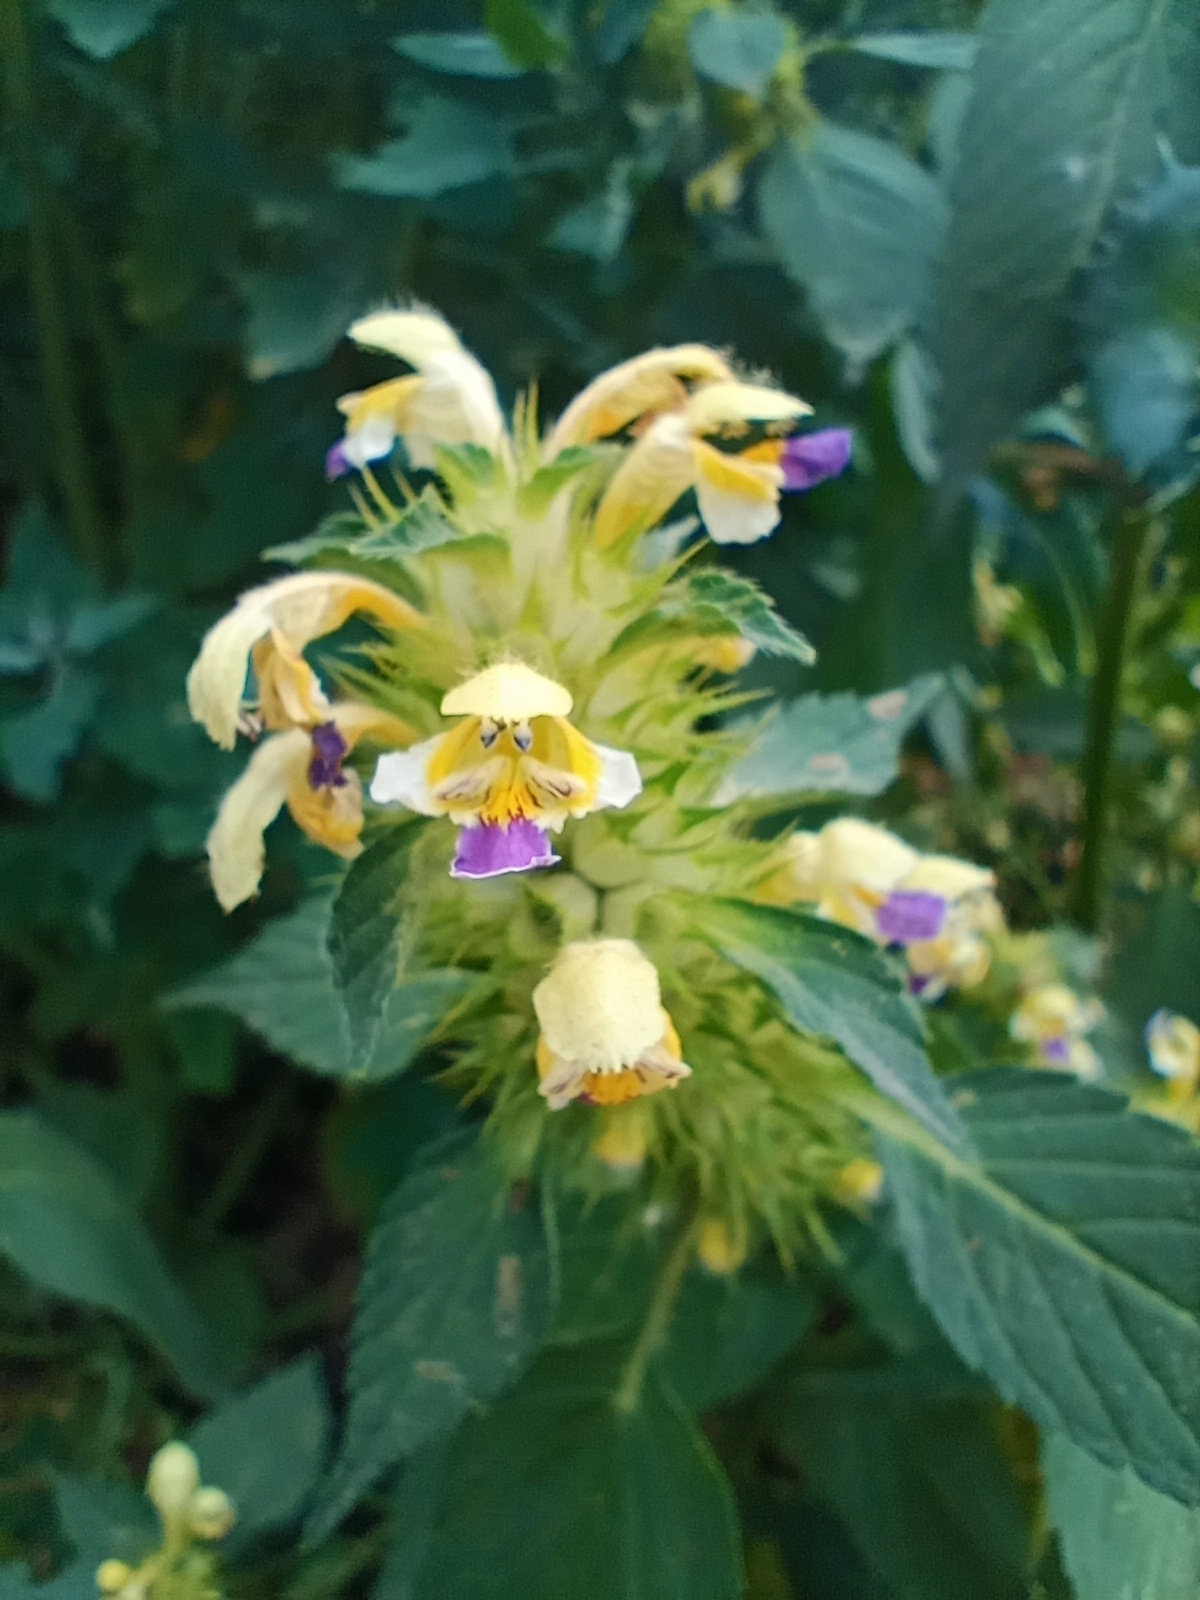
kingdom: Plantae
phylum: Tracheophyta
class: Magnoliopsida
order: Lamiales
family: Lamiaceae
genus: Galeopsis
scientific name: Galeopsis speciosa
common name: Large-flowered hemp-nettle
